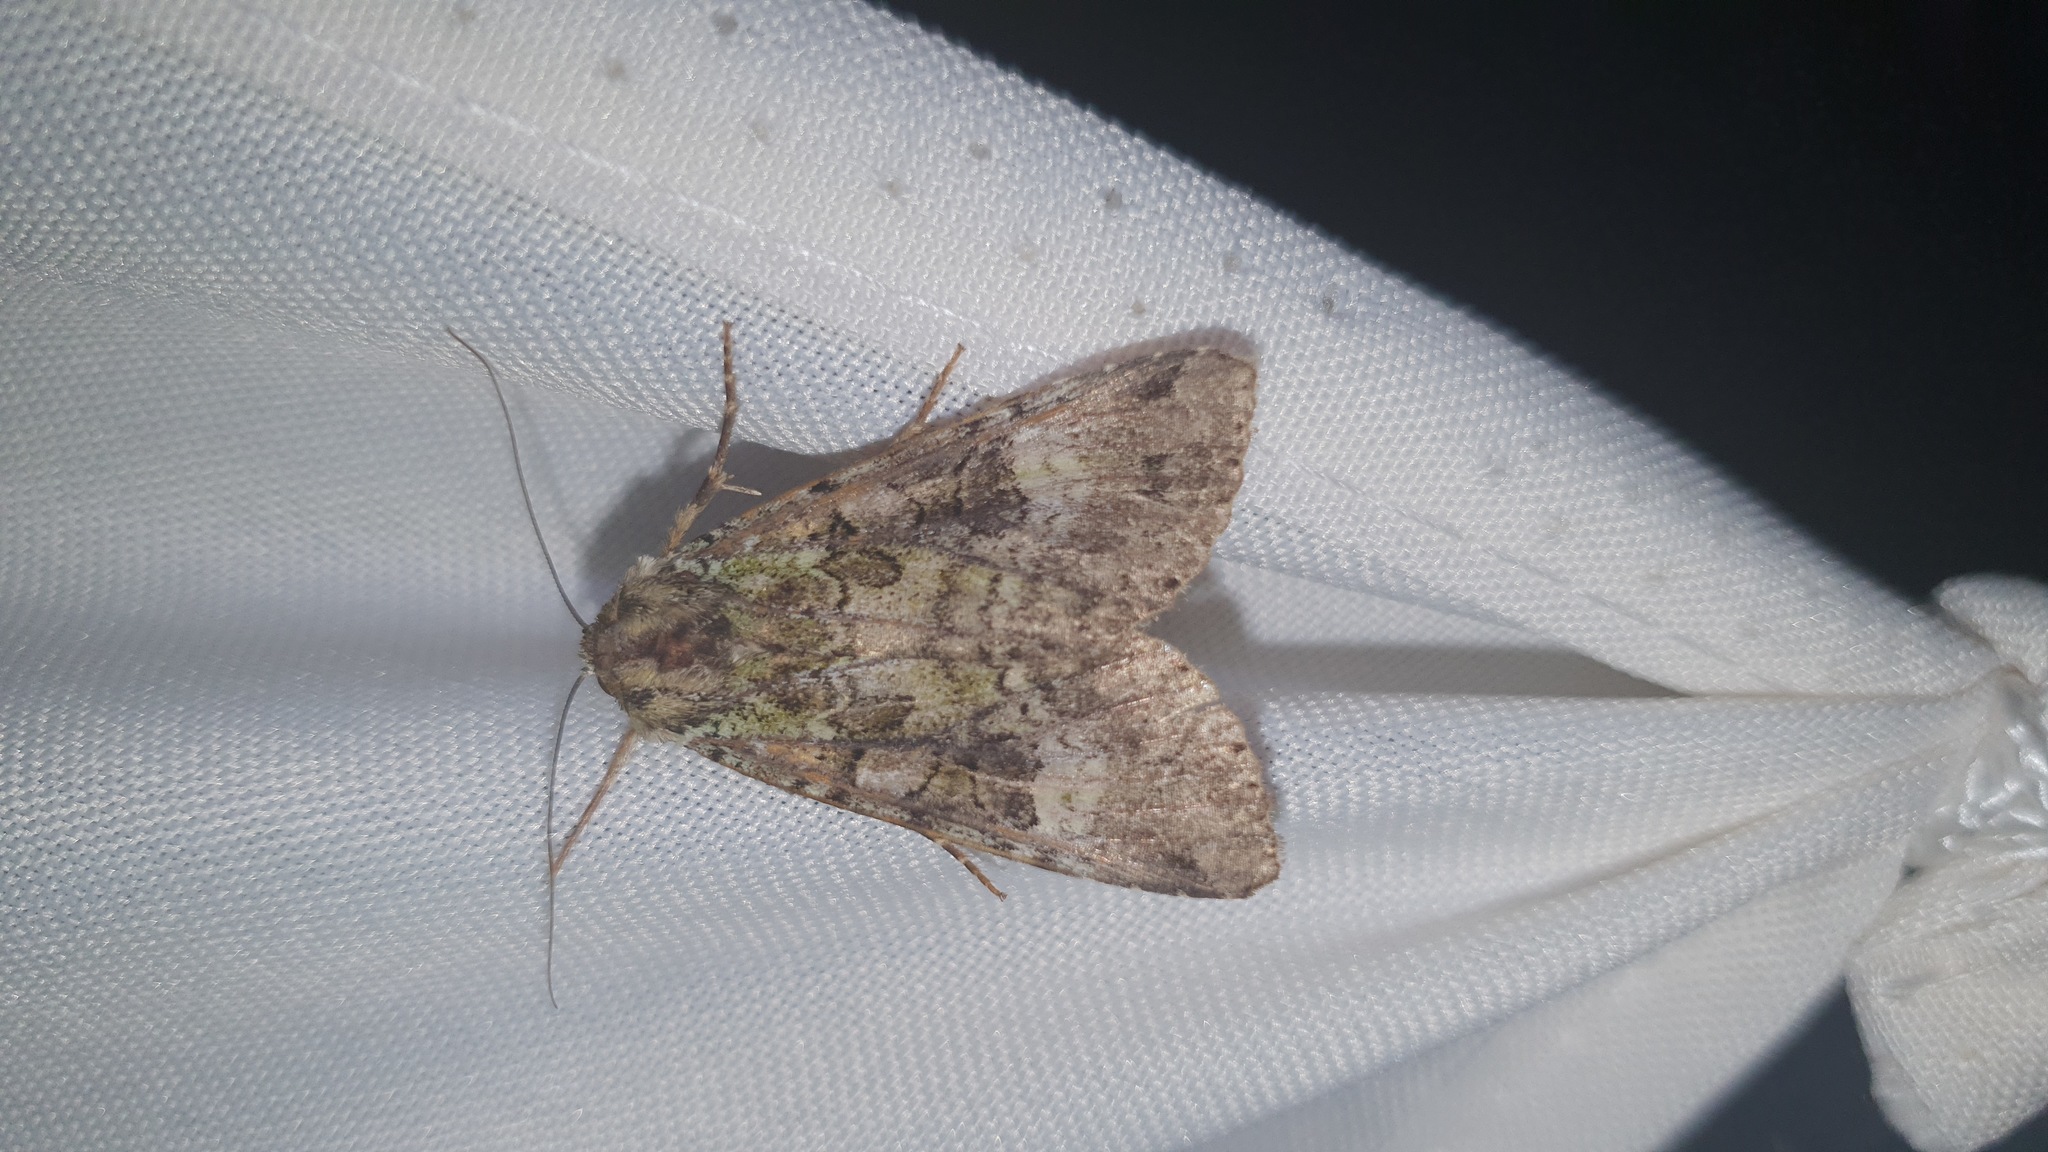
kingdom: Animalia
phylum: Arthropoda
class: Insecta
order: Lepidoptera
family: Noctuidae
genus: Anaplectoides
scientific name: Anaplectoides prasina
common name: Green arches
